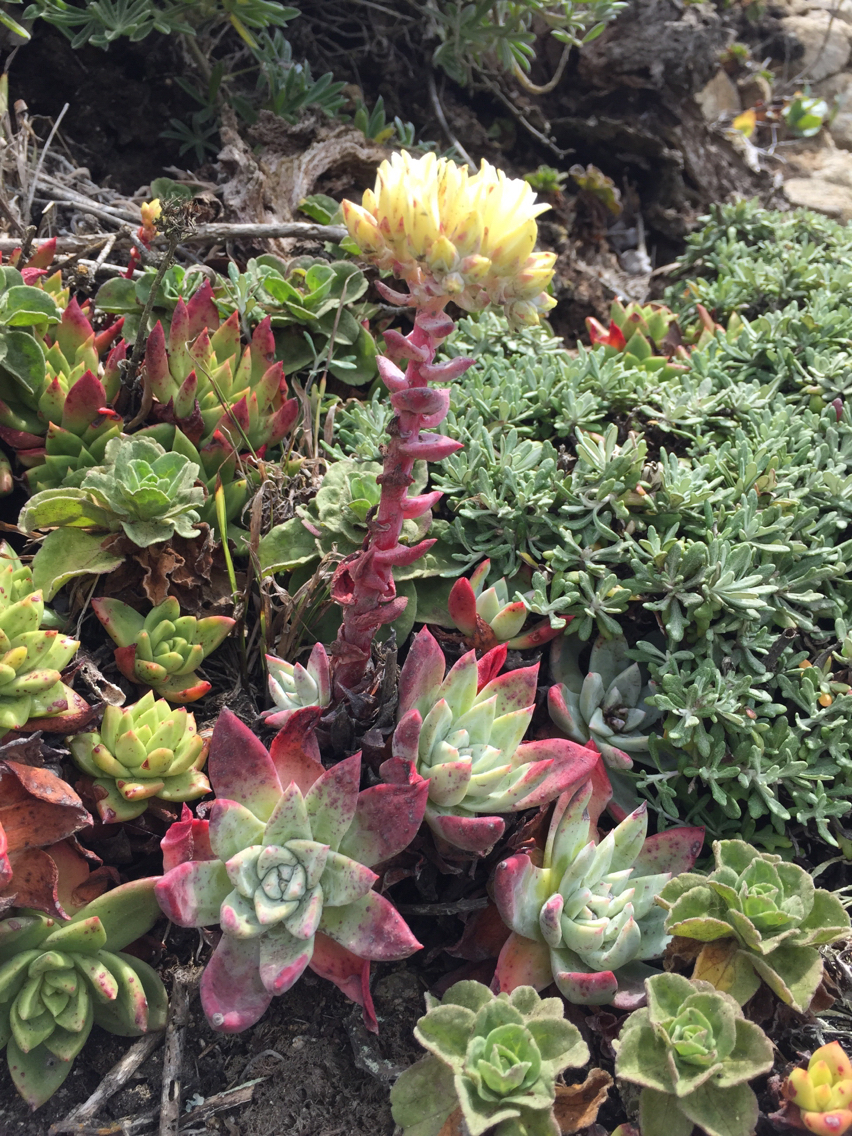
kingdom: Plantae
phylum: Tracheophyta
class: Magnoliopsida
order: Saxifragales
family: Crassulaceae
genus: Dudleya
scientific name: Dudleya farinosa
